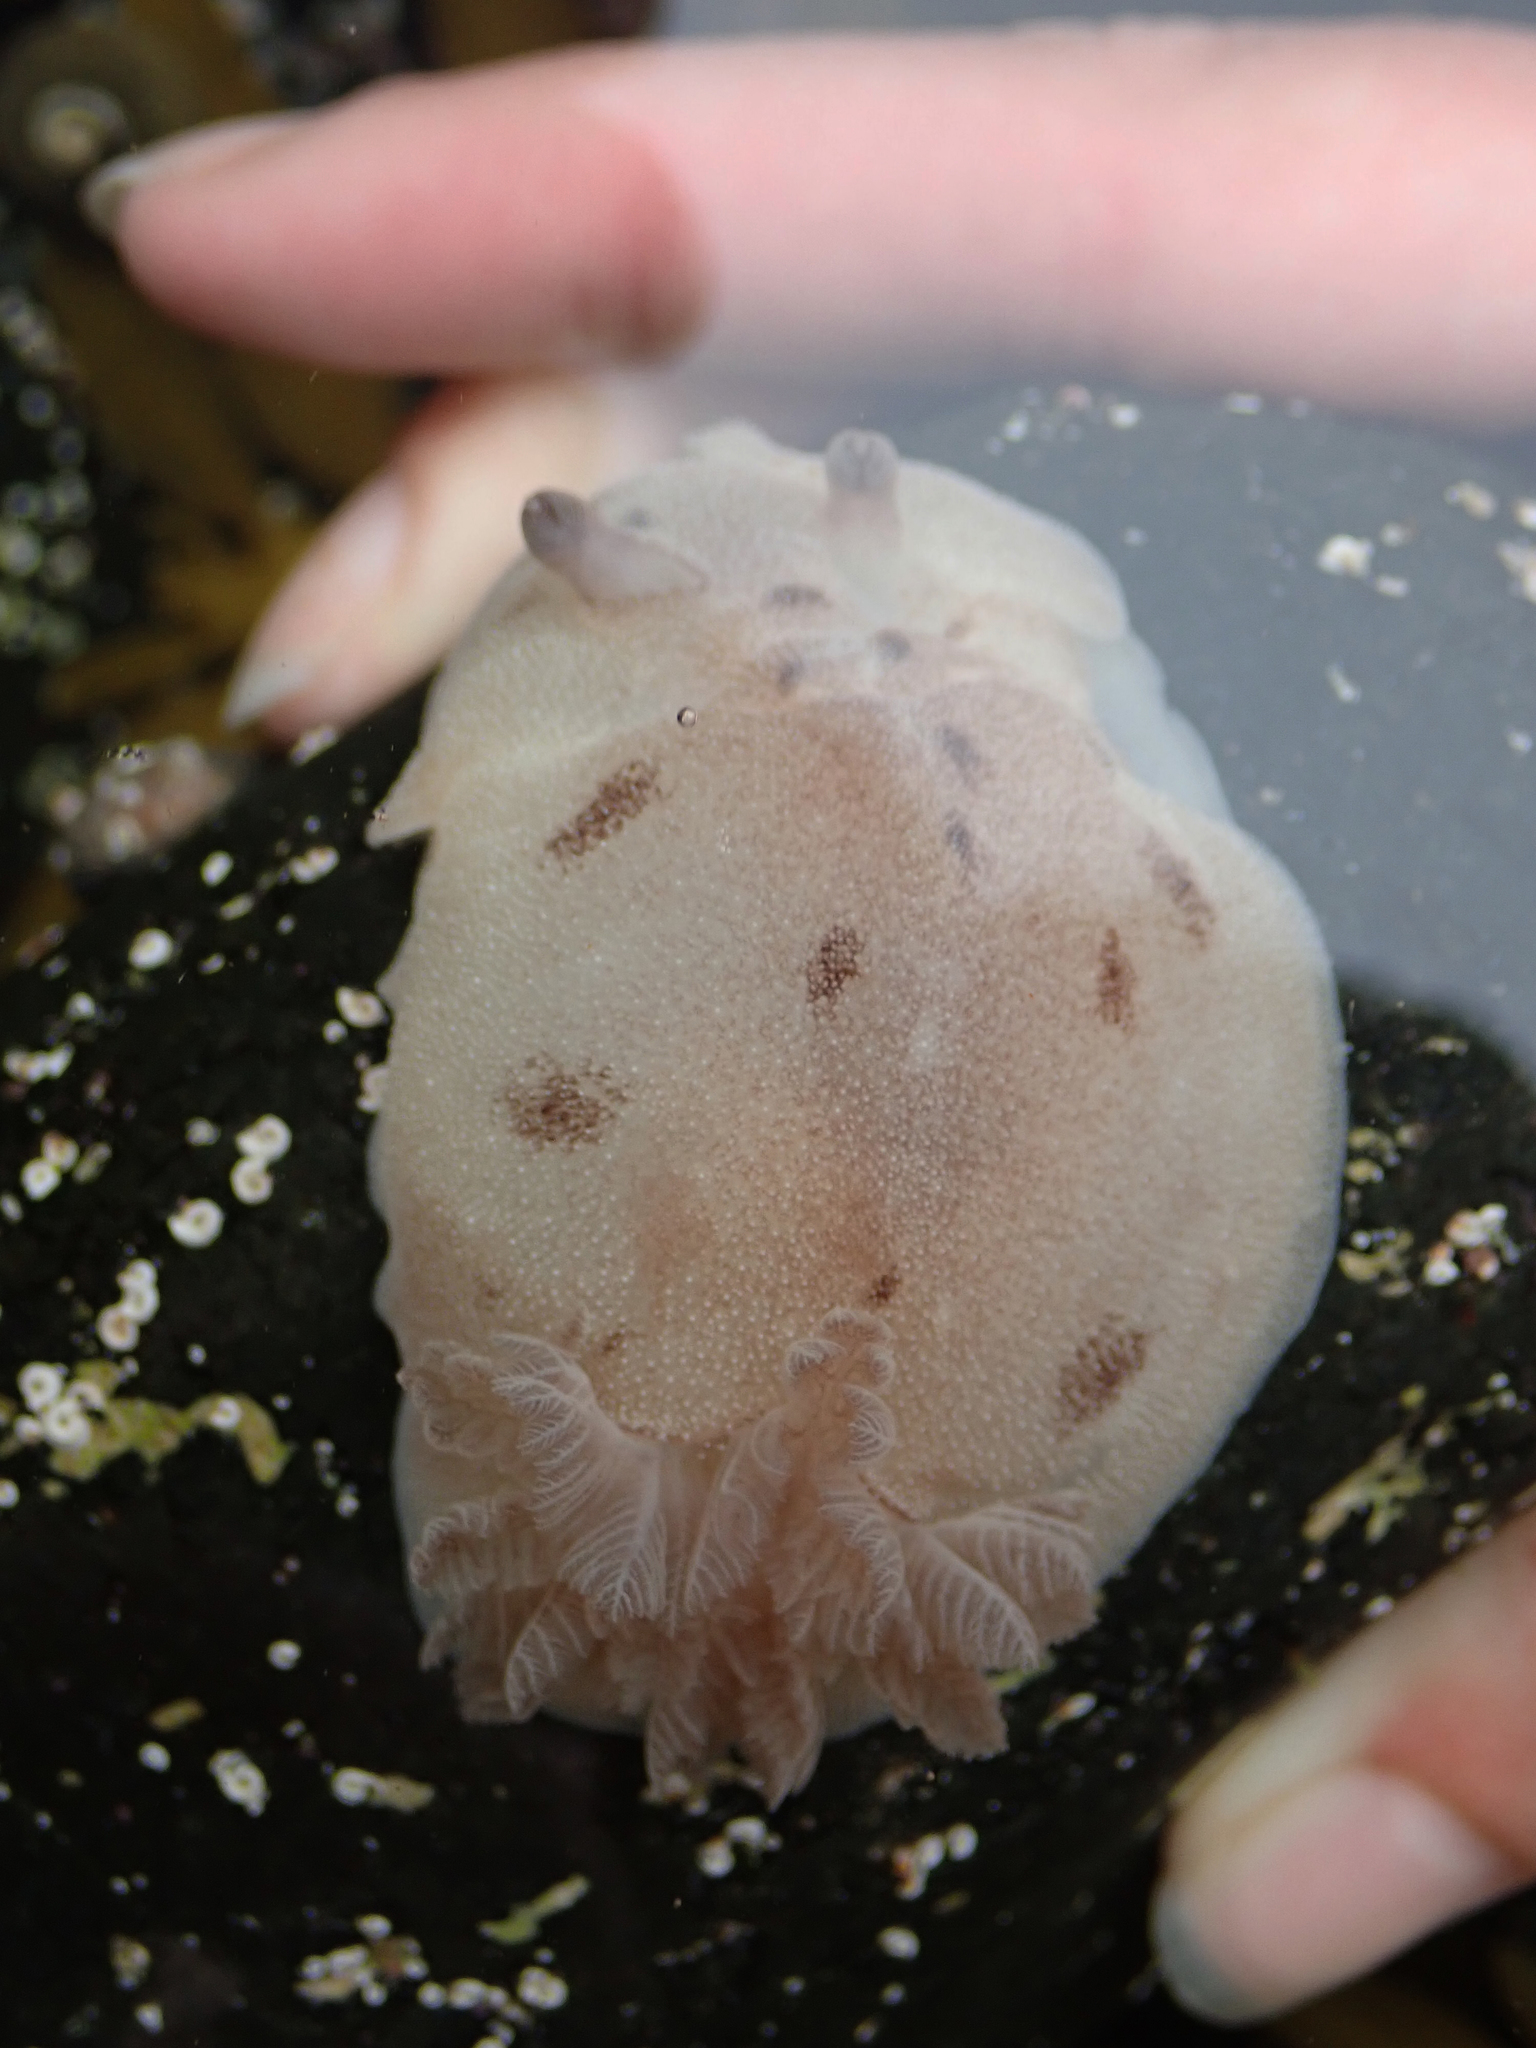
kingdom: Animalia
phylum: Mollusca
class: Gastropoda
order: Nudibranchia
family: Discodorididae
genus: Alloiodoris
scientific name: Alloiodoris lanuginata
